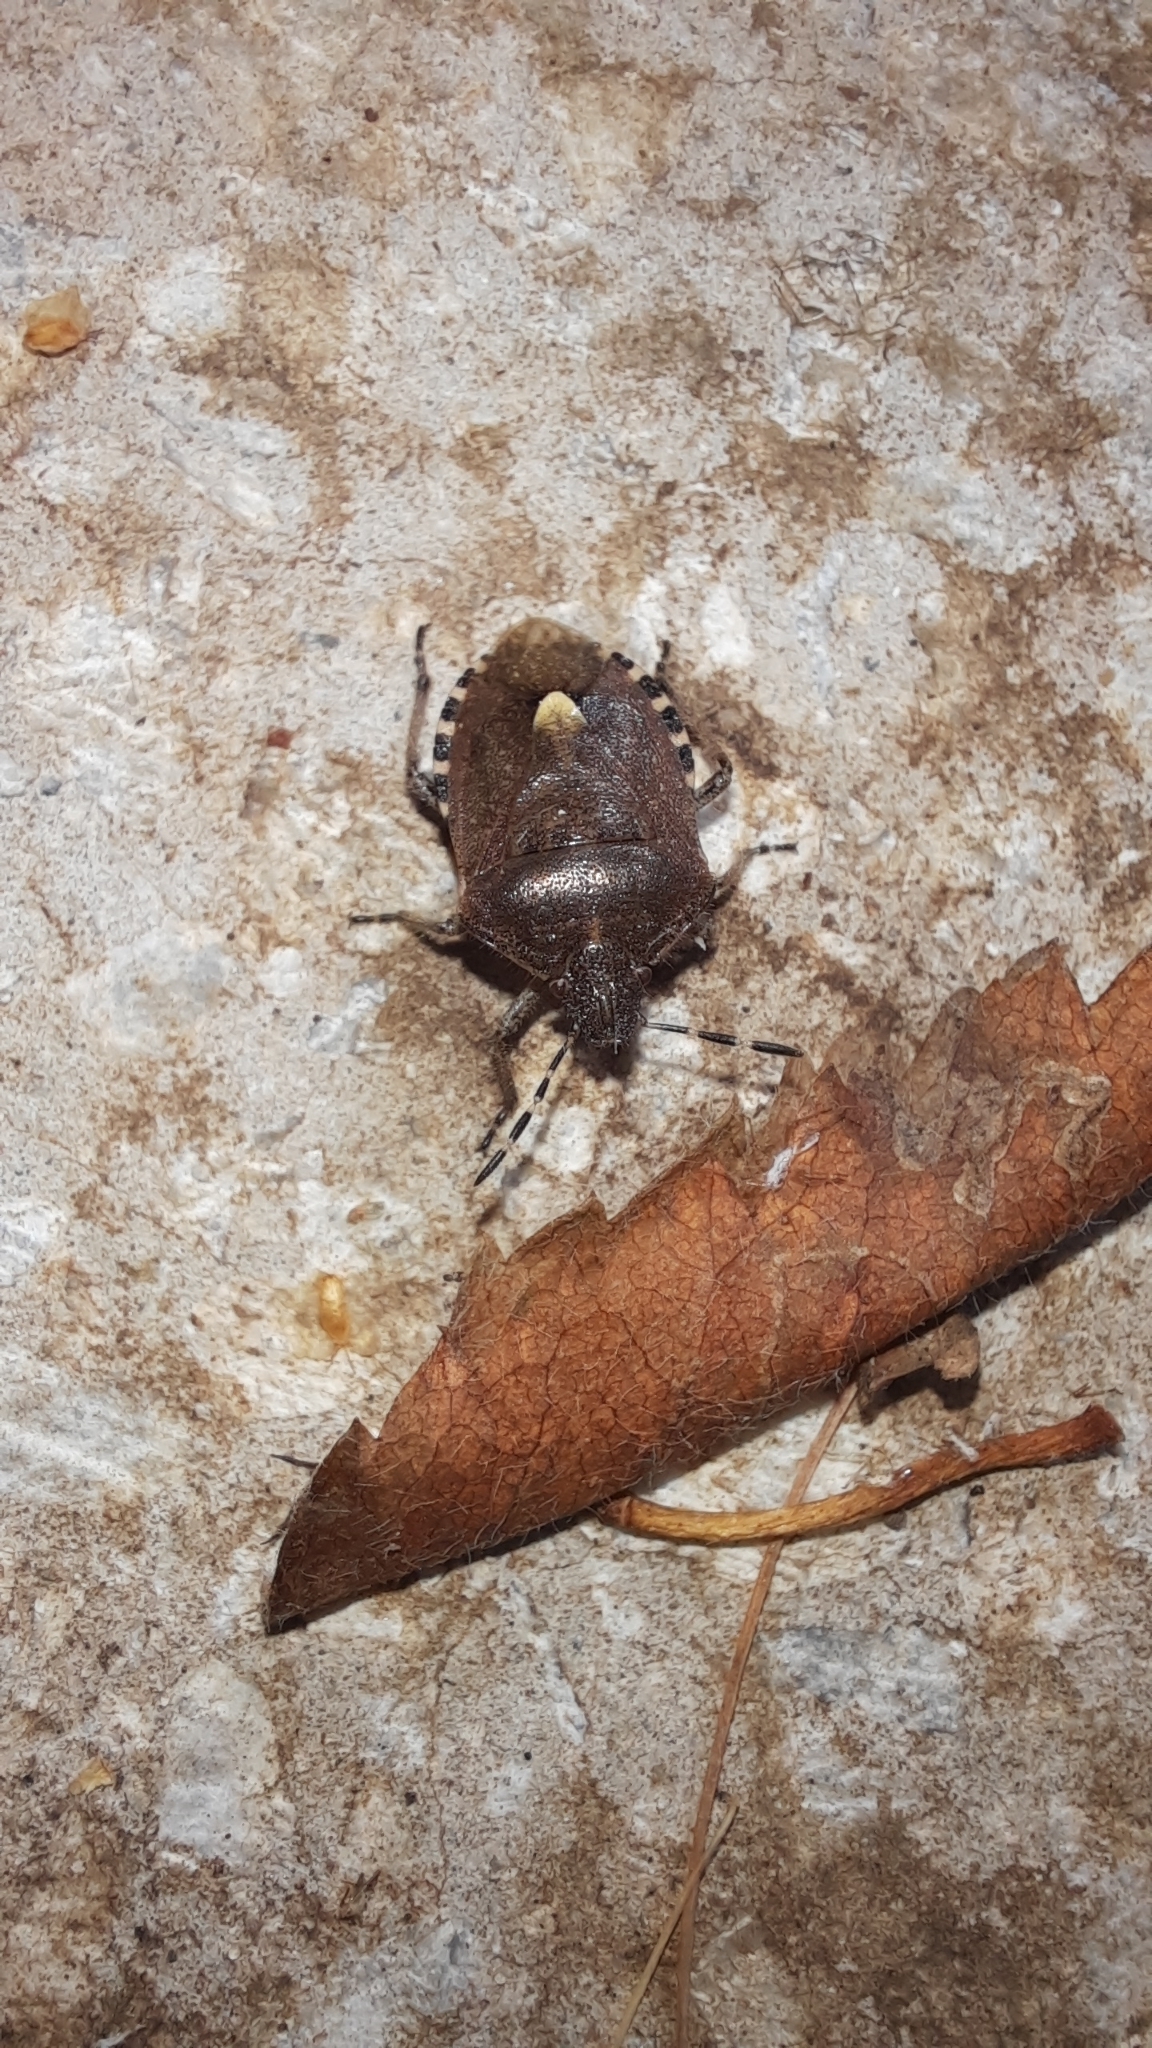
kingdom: Animalia
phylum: Arthropoda
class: Insecta
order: Hemiptera
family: Pentatomidae
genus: Dolycoris
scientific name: Dolycoris baccarum
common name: Sloe bug
